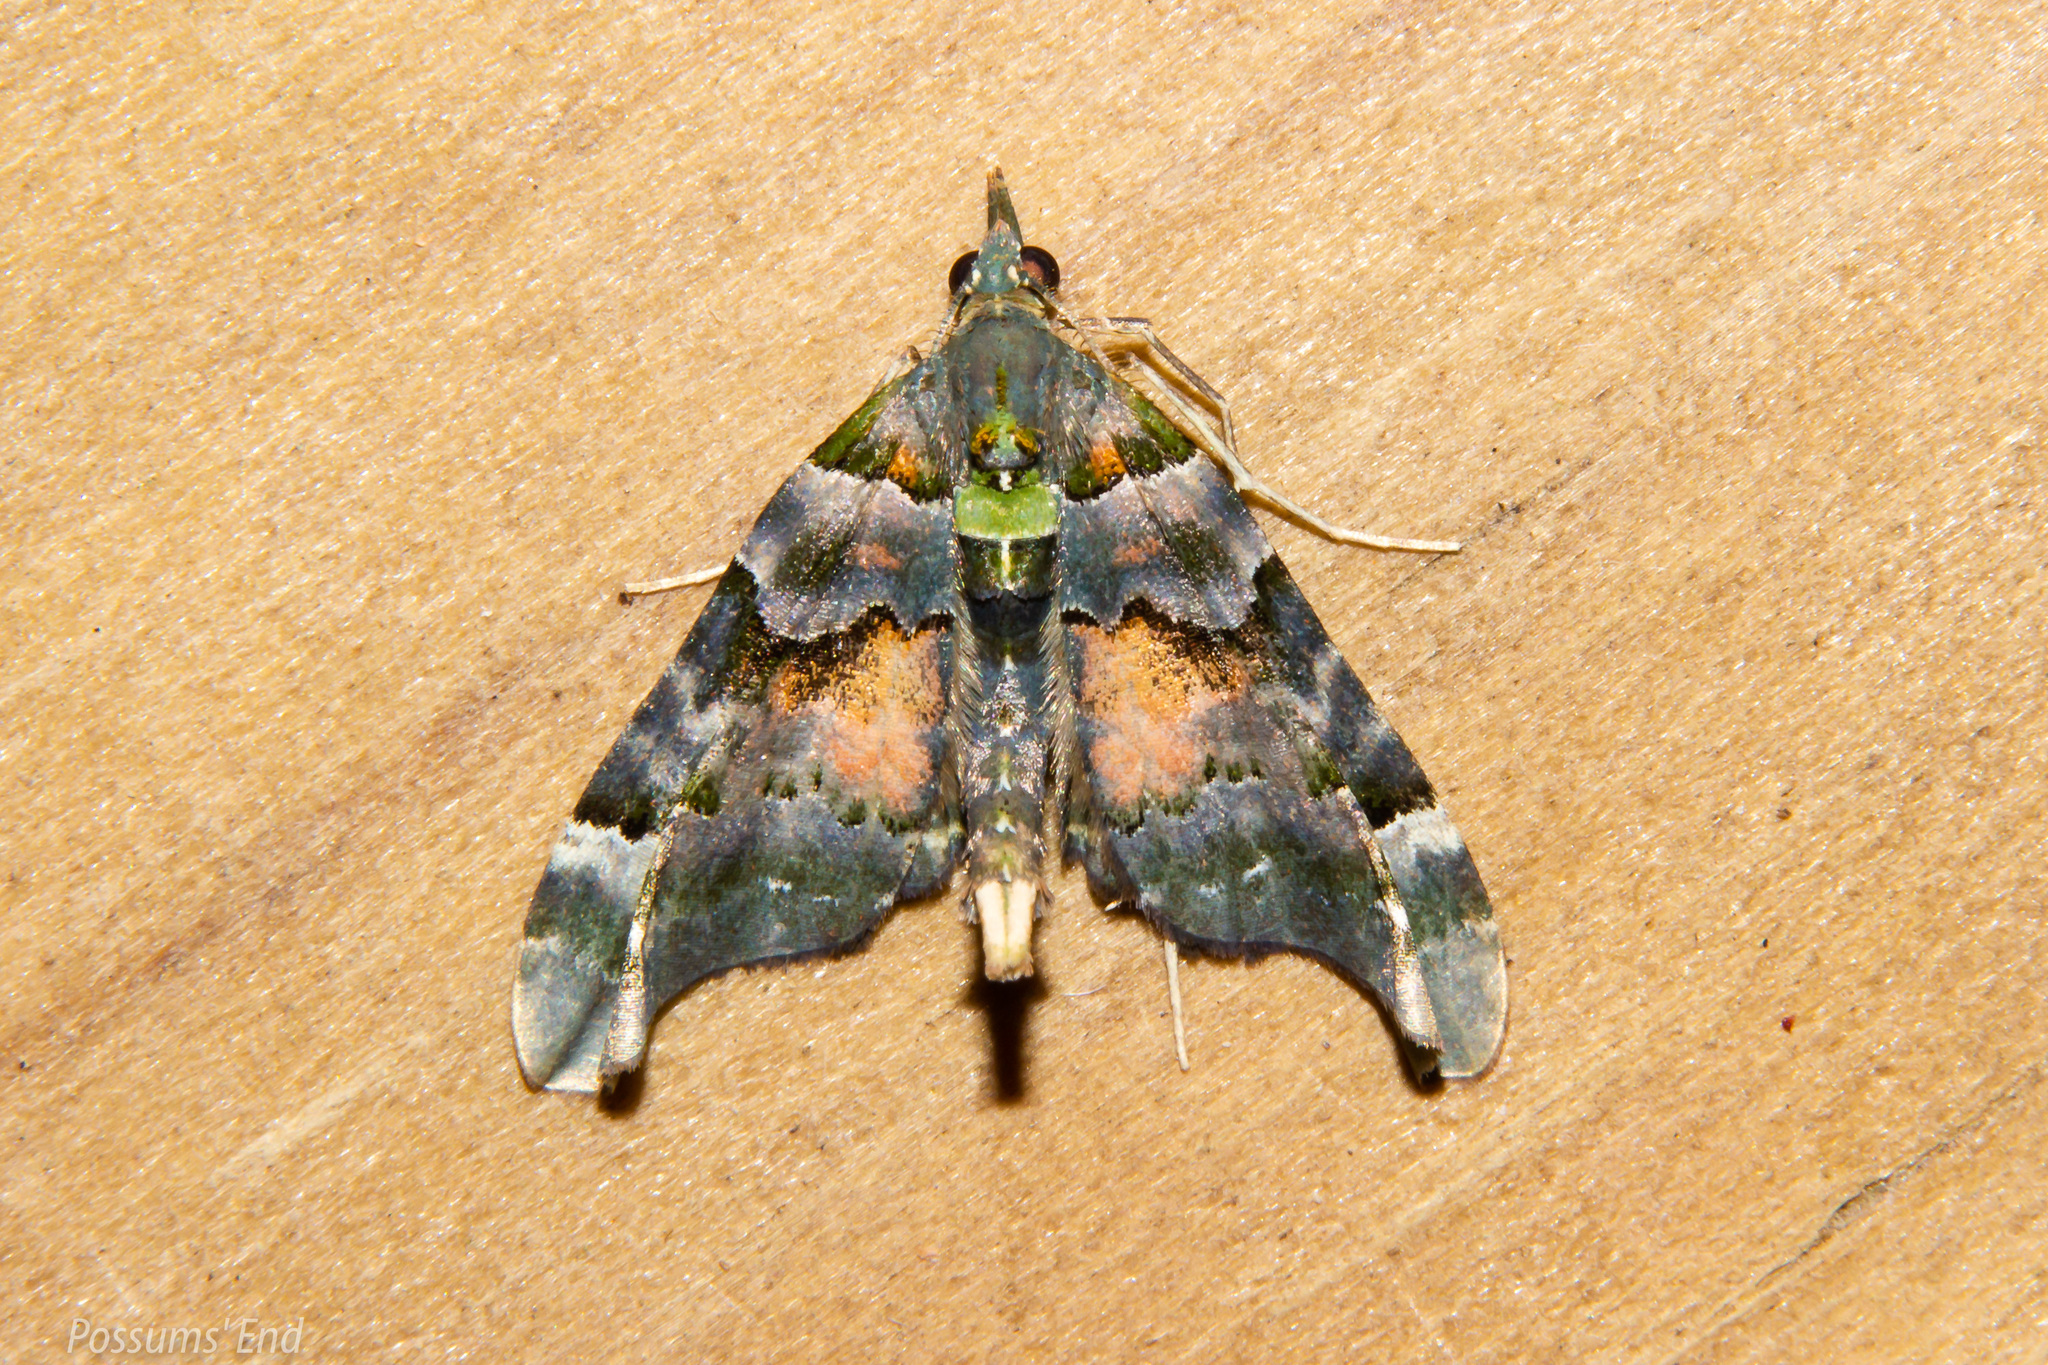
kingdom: Animalia
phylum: Arthropoda
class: Insecta
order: Lepidoptera
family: Geometridae
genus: Elvia
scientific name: Elvia glaucata
